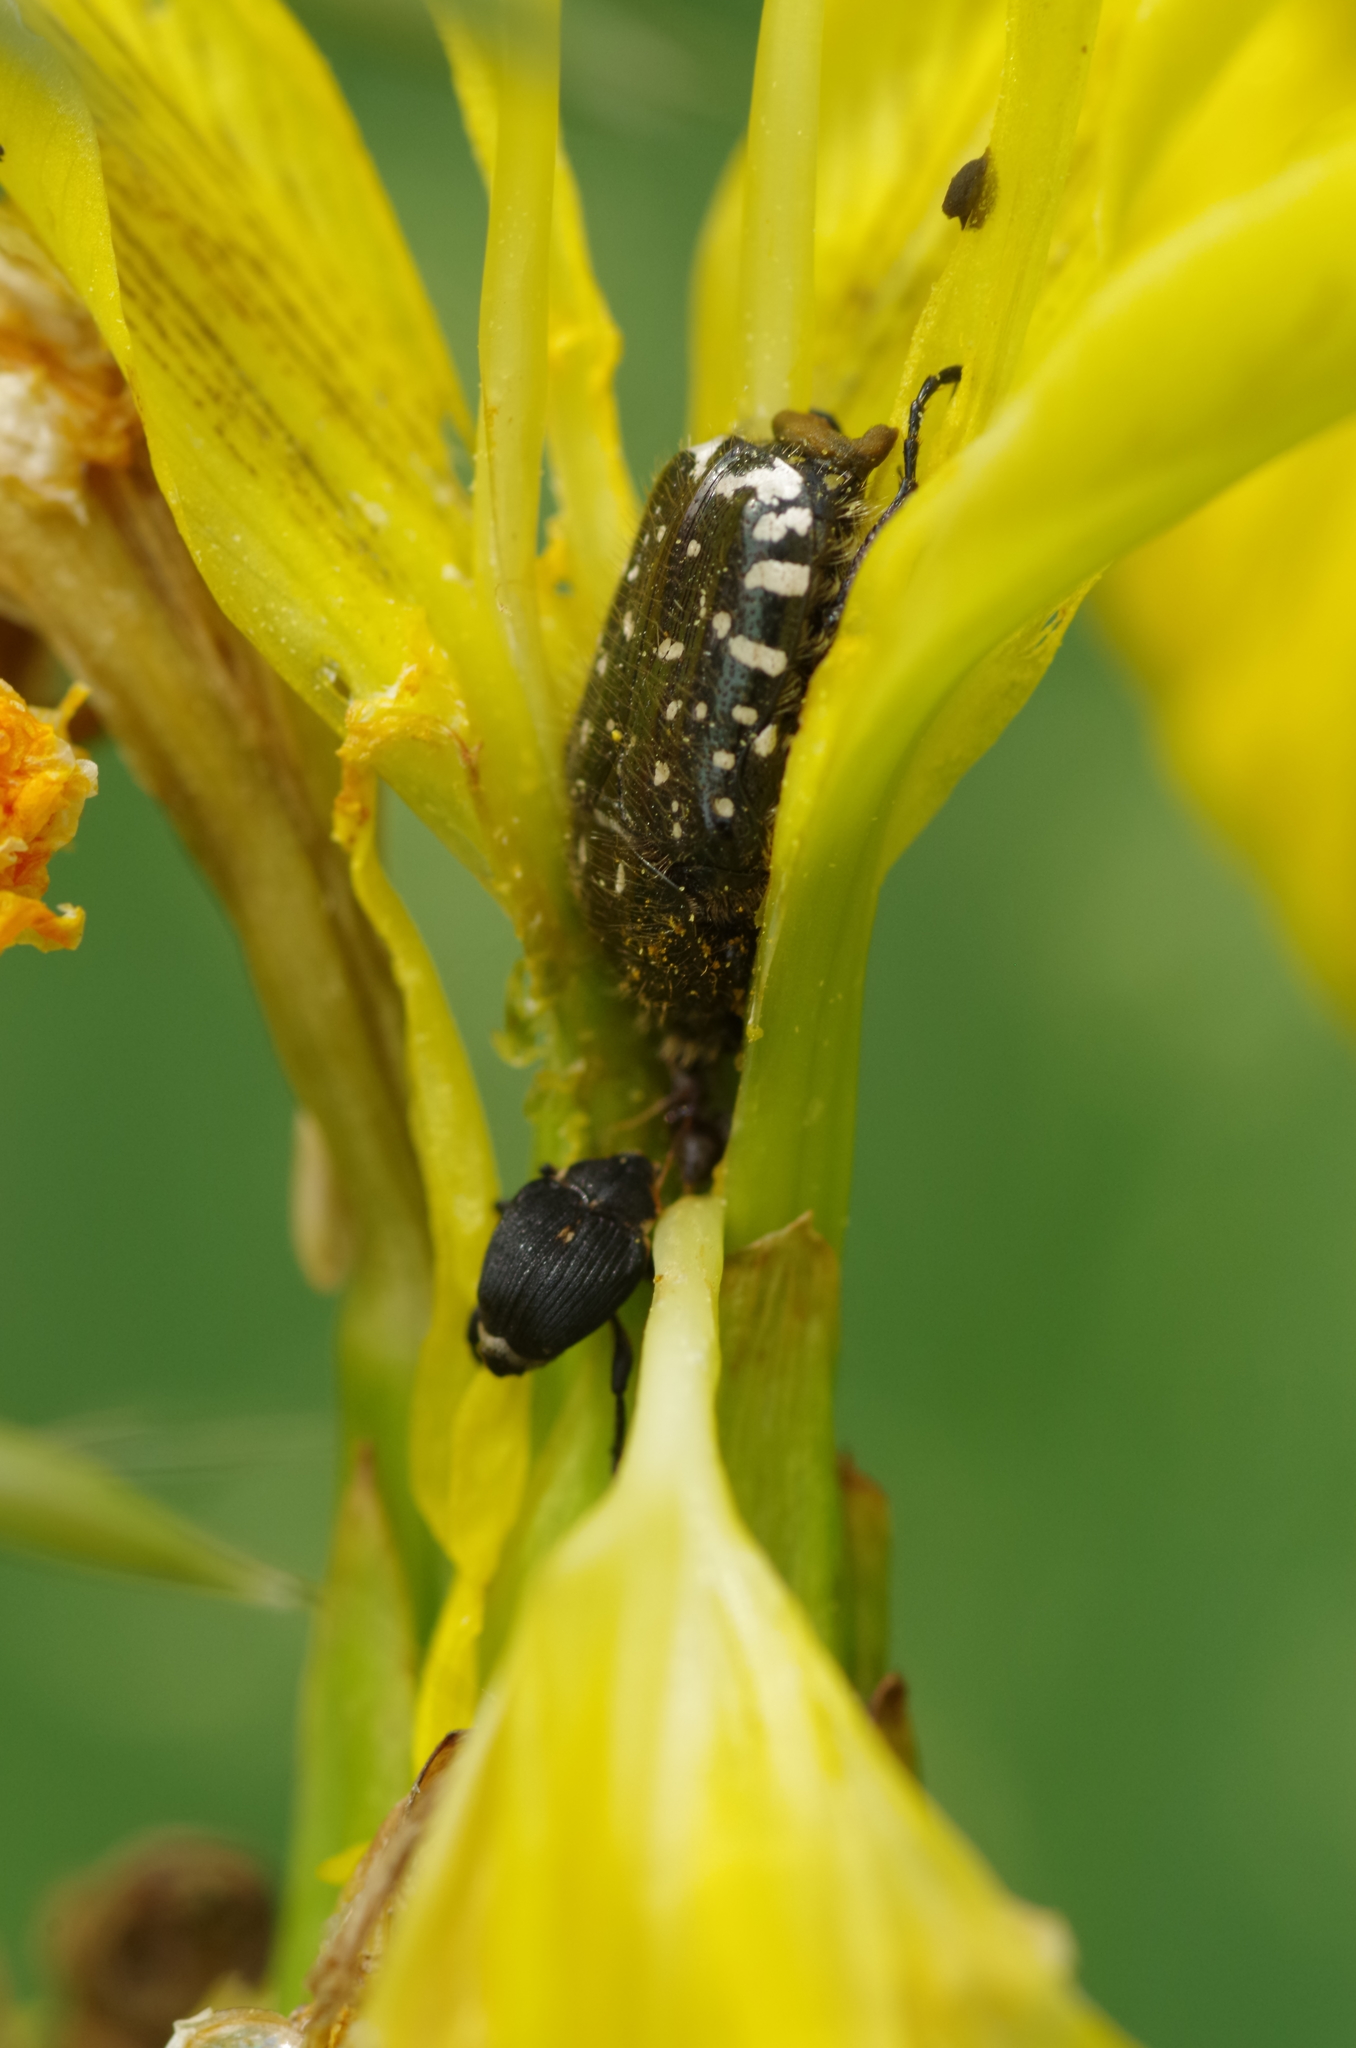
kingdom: Animalia
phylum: Arthropoda
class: Insecta
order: Coleoptera
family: Scarabaeidae
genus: Oxythyrea
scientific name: Oxythyrea funesta
